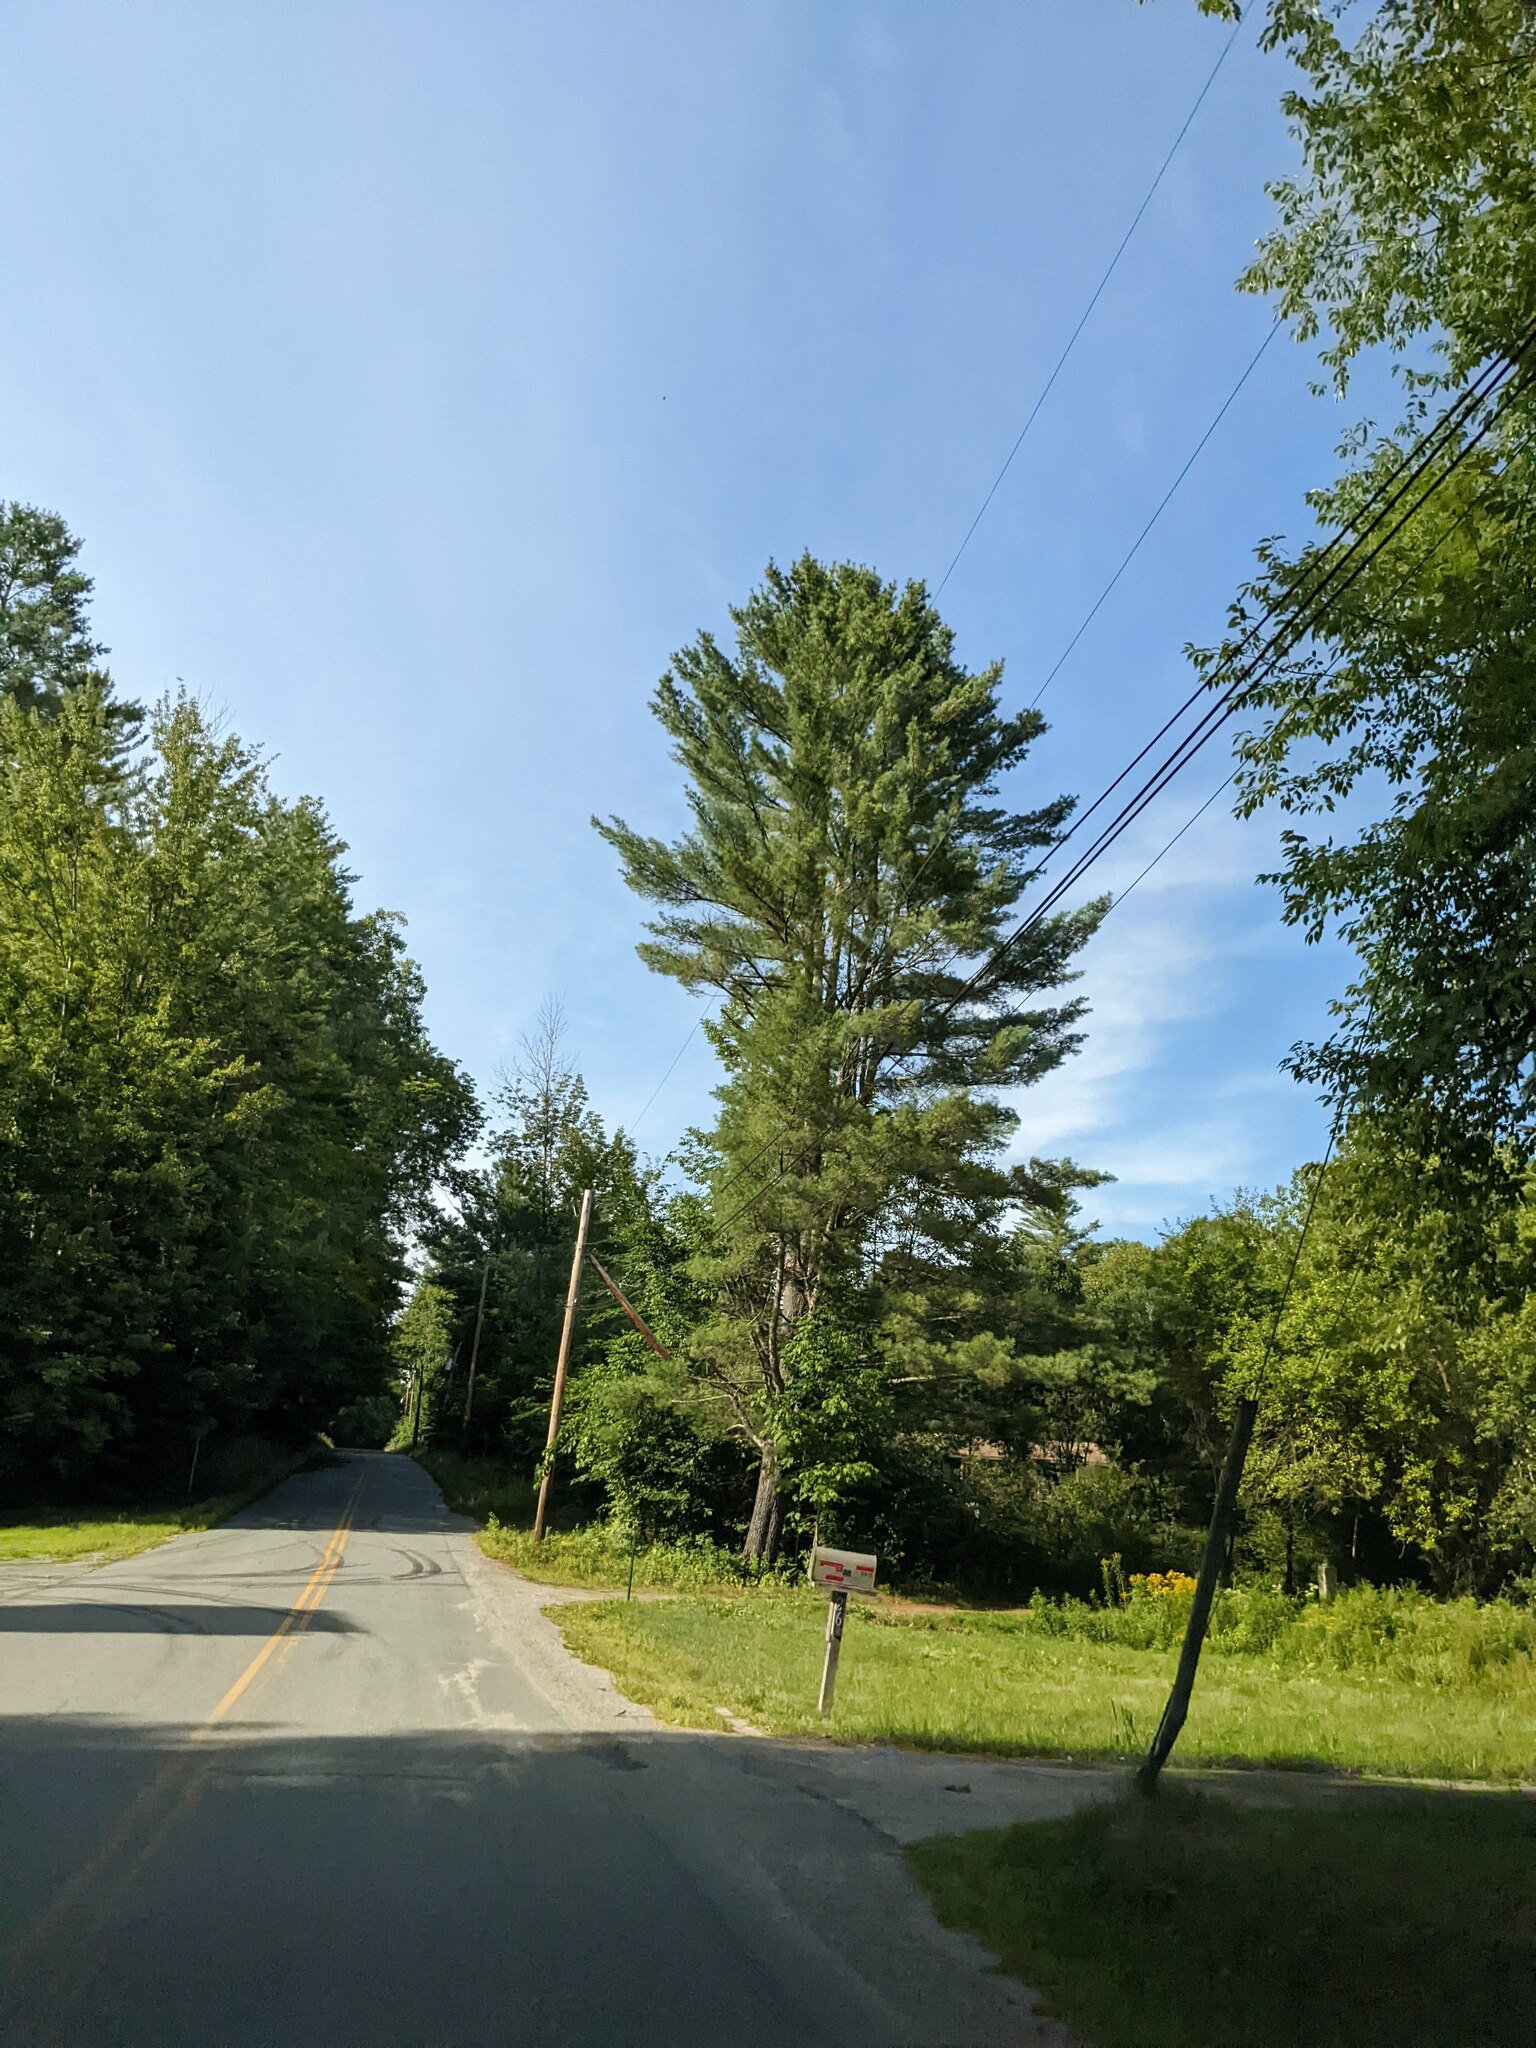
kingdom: Plantae
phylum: Tracheophyta
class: Pinopsida
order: Pinales
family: Pinaceae
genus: Pinus
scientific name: Pinus strobus
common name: Weymouth pine
